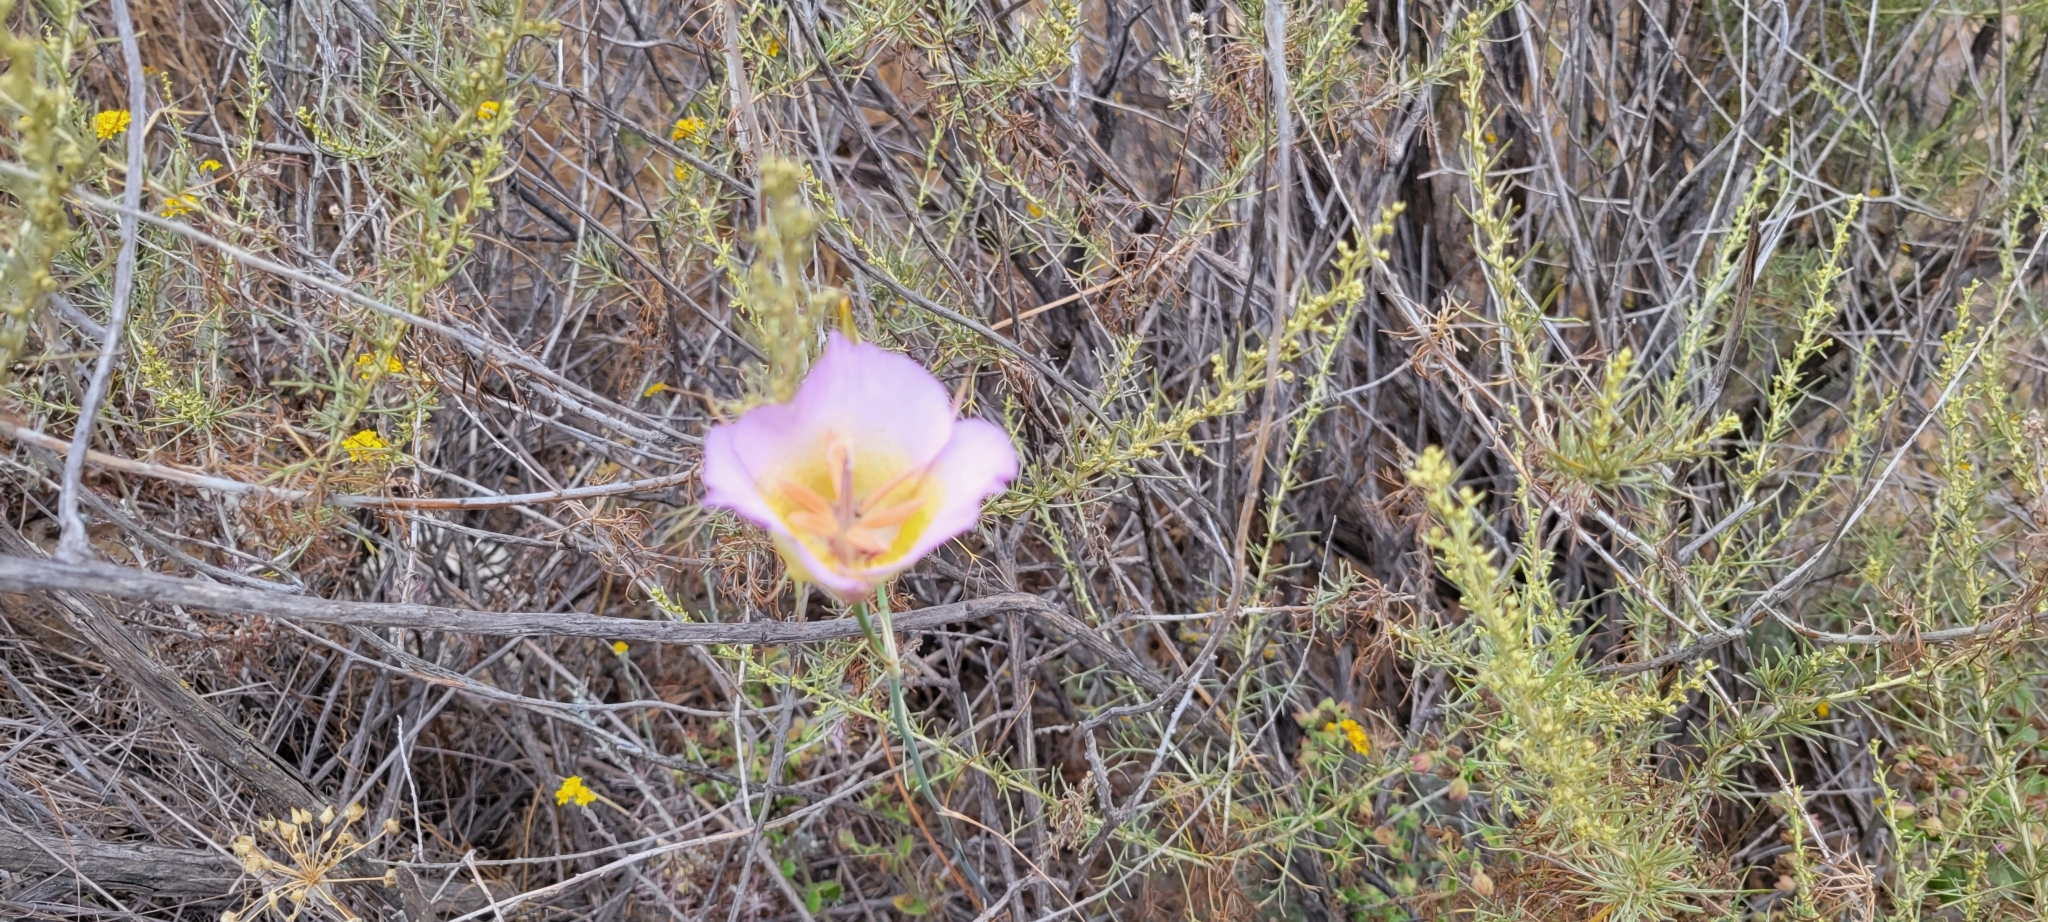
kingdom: Plantae
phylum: Tracheophyta
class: Liliopsida
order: Liliales
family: Liliaceae
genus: Calochortus
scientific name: Calochortus plummerae
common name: Plummer's mariposa-lily
